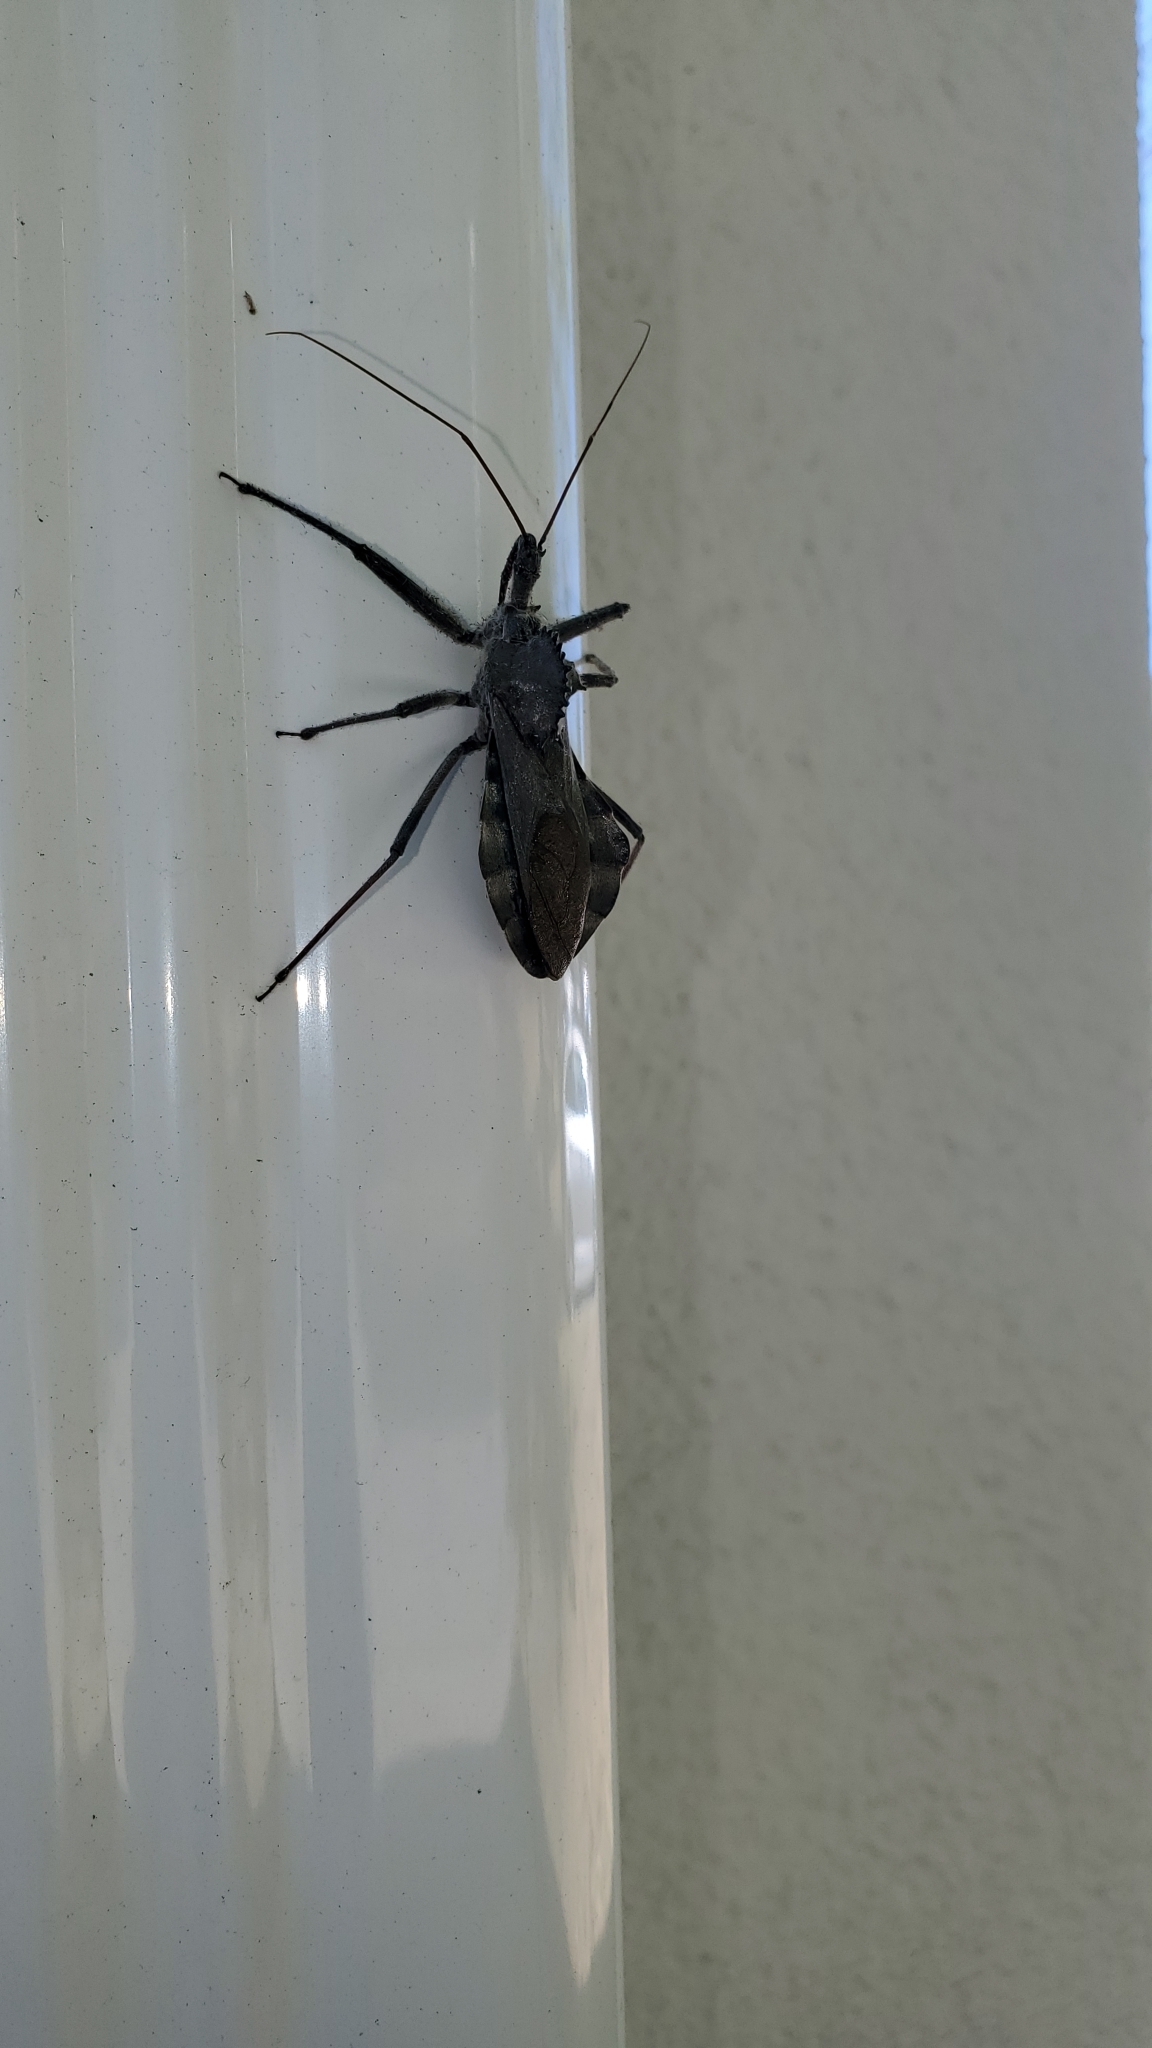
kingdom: Animalia
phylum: Arthropoda
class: Insecta
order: Hemiptera
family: Reduviidae
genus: Arilus
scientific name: Arilus cristatus
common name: North american wheel bug
